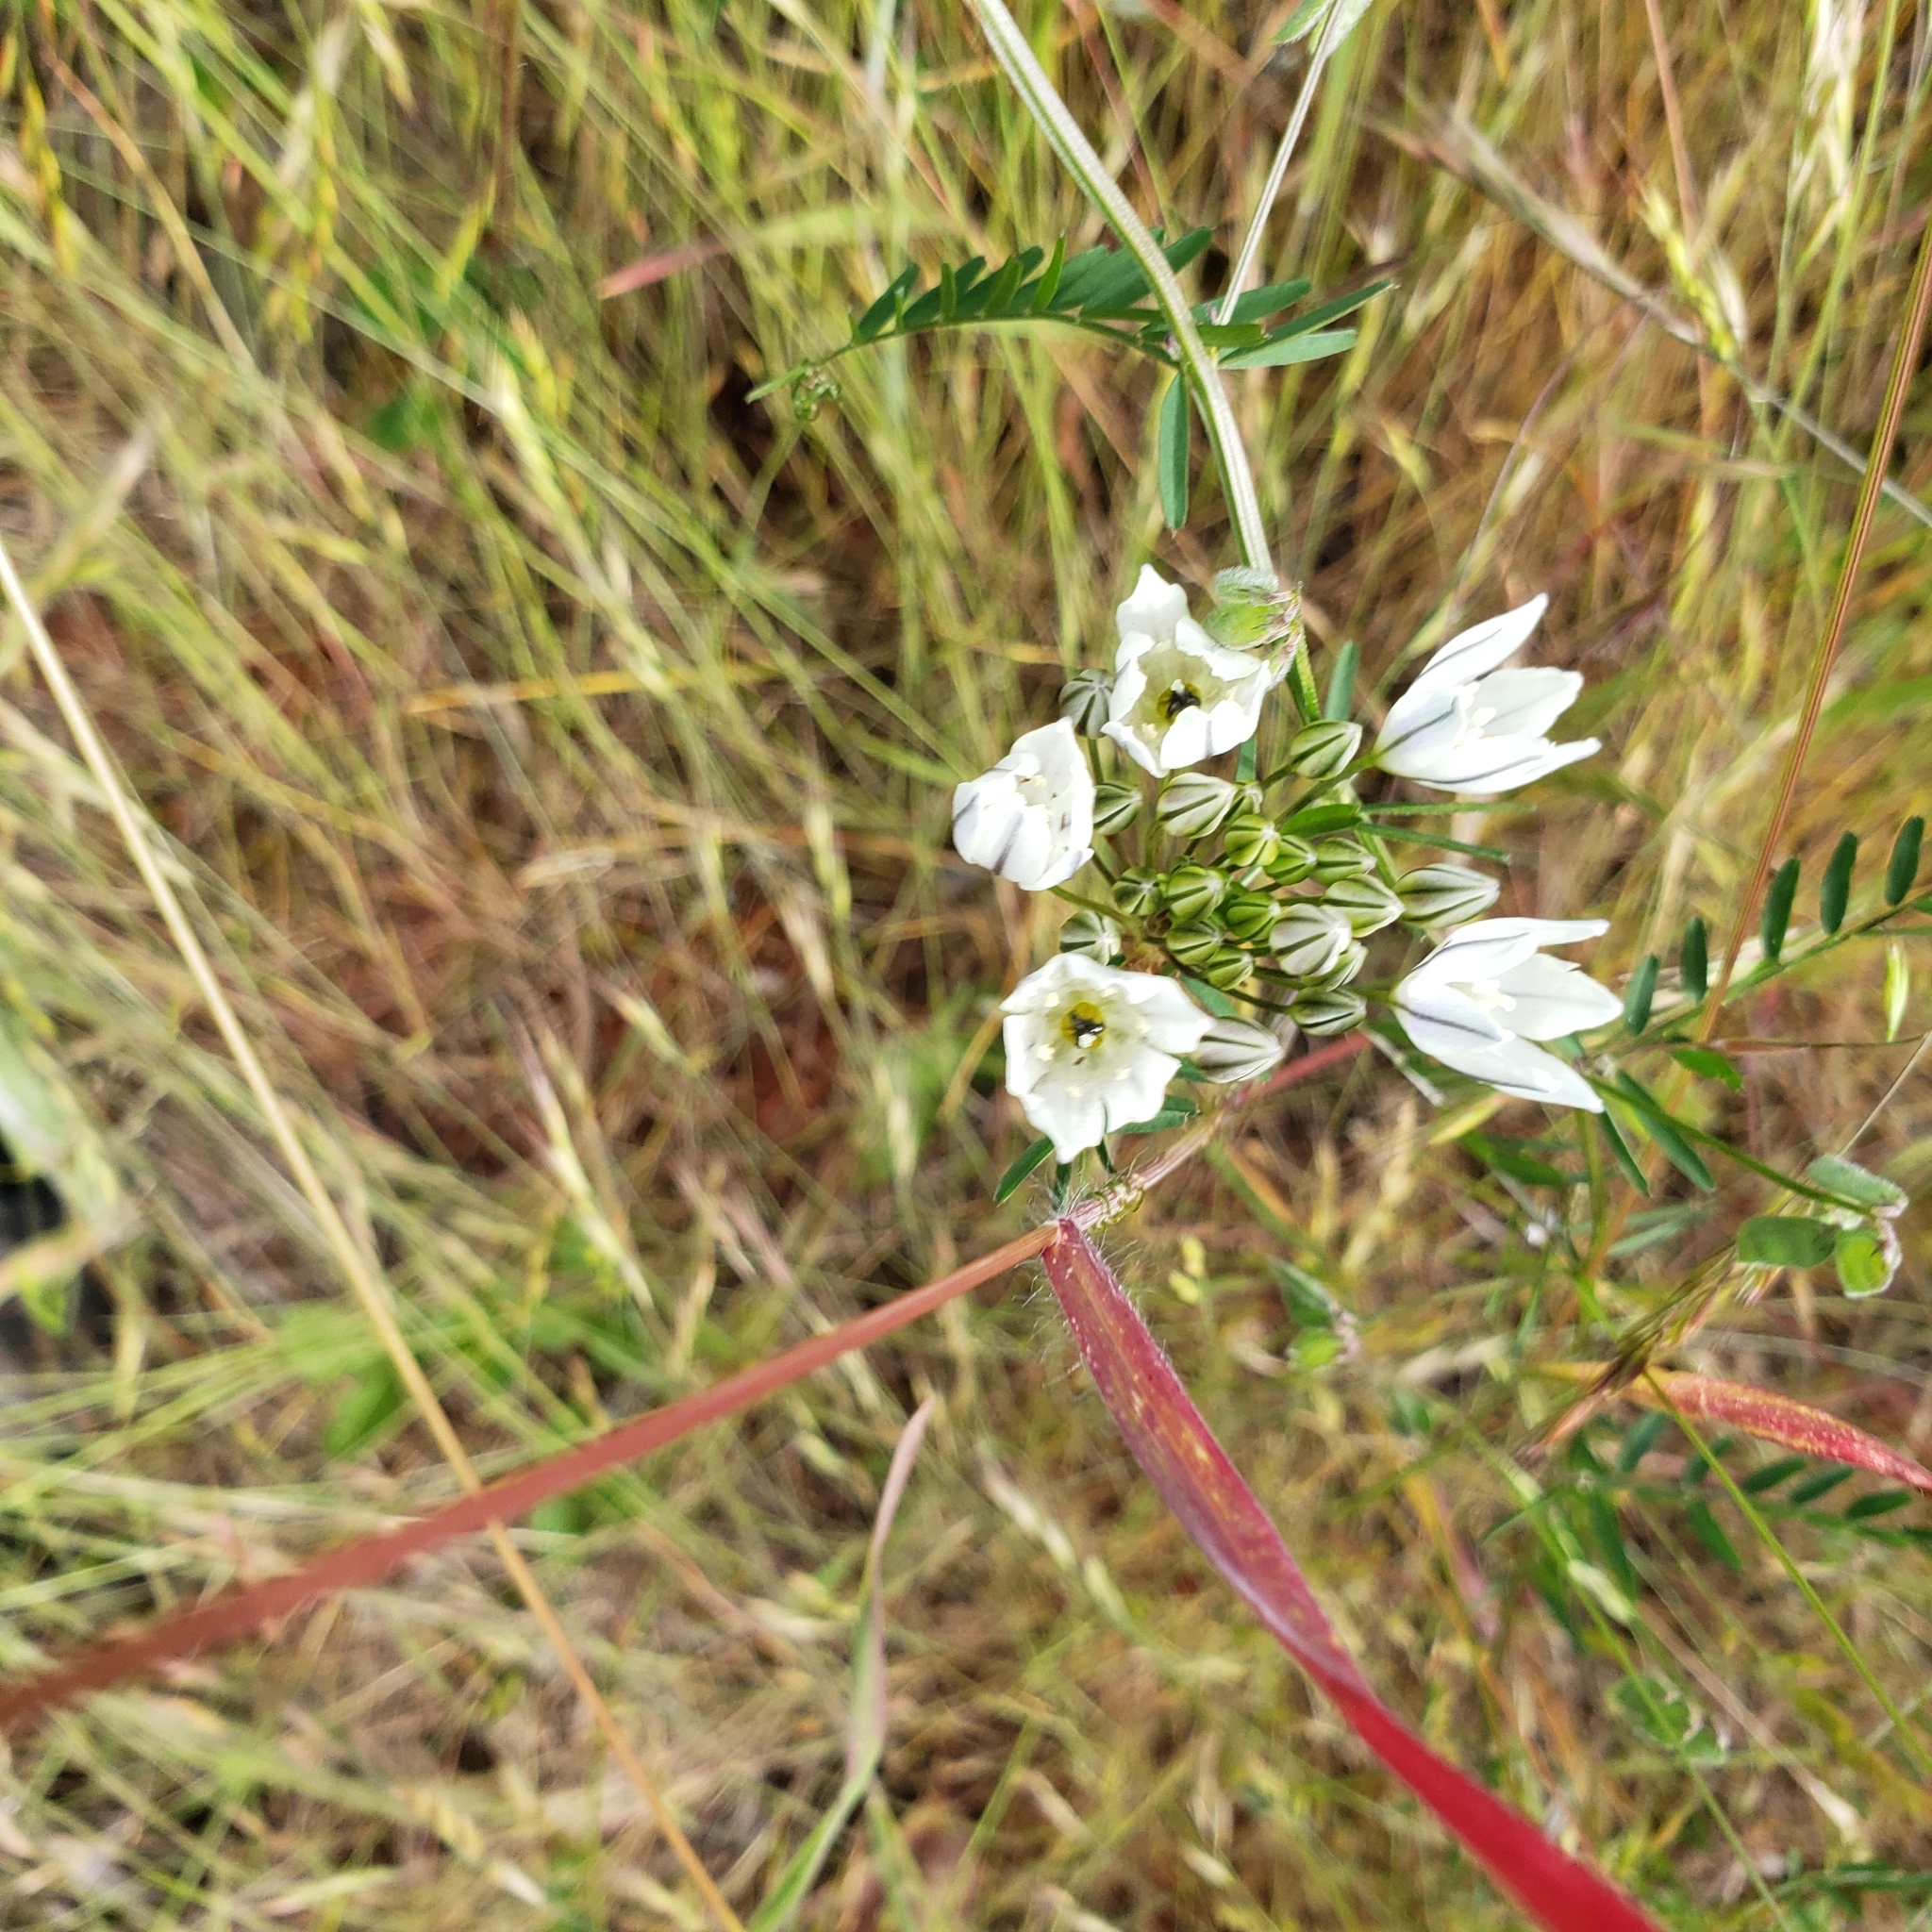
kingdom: Plantae
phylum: Tracheophyta
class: Liliopsida
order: Asparagales
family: Asparagaceae
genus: Triteleia
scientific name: Triteleia hyacinthina
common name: White brodiaea
